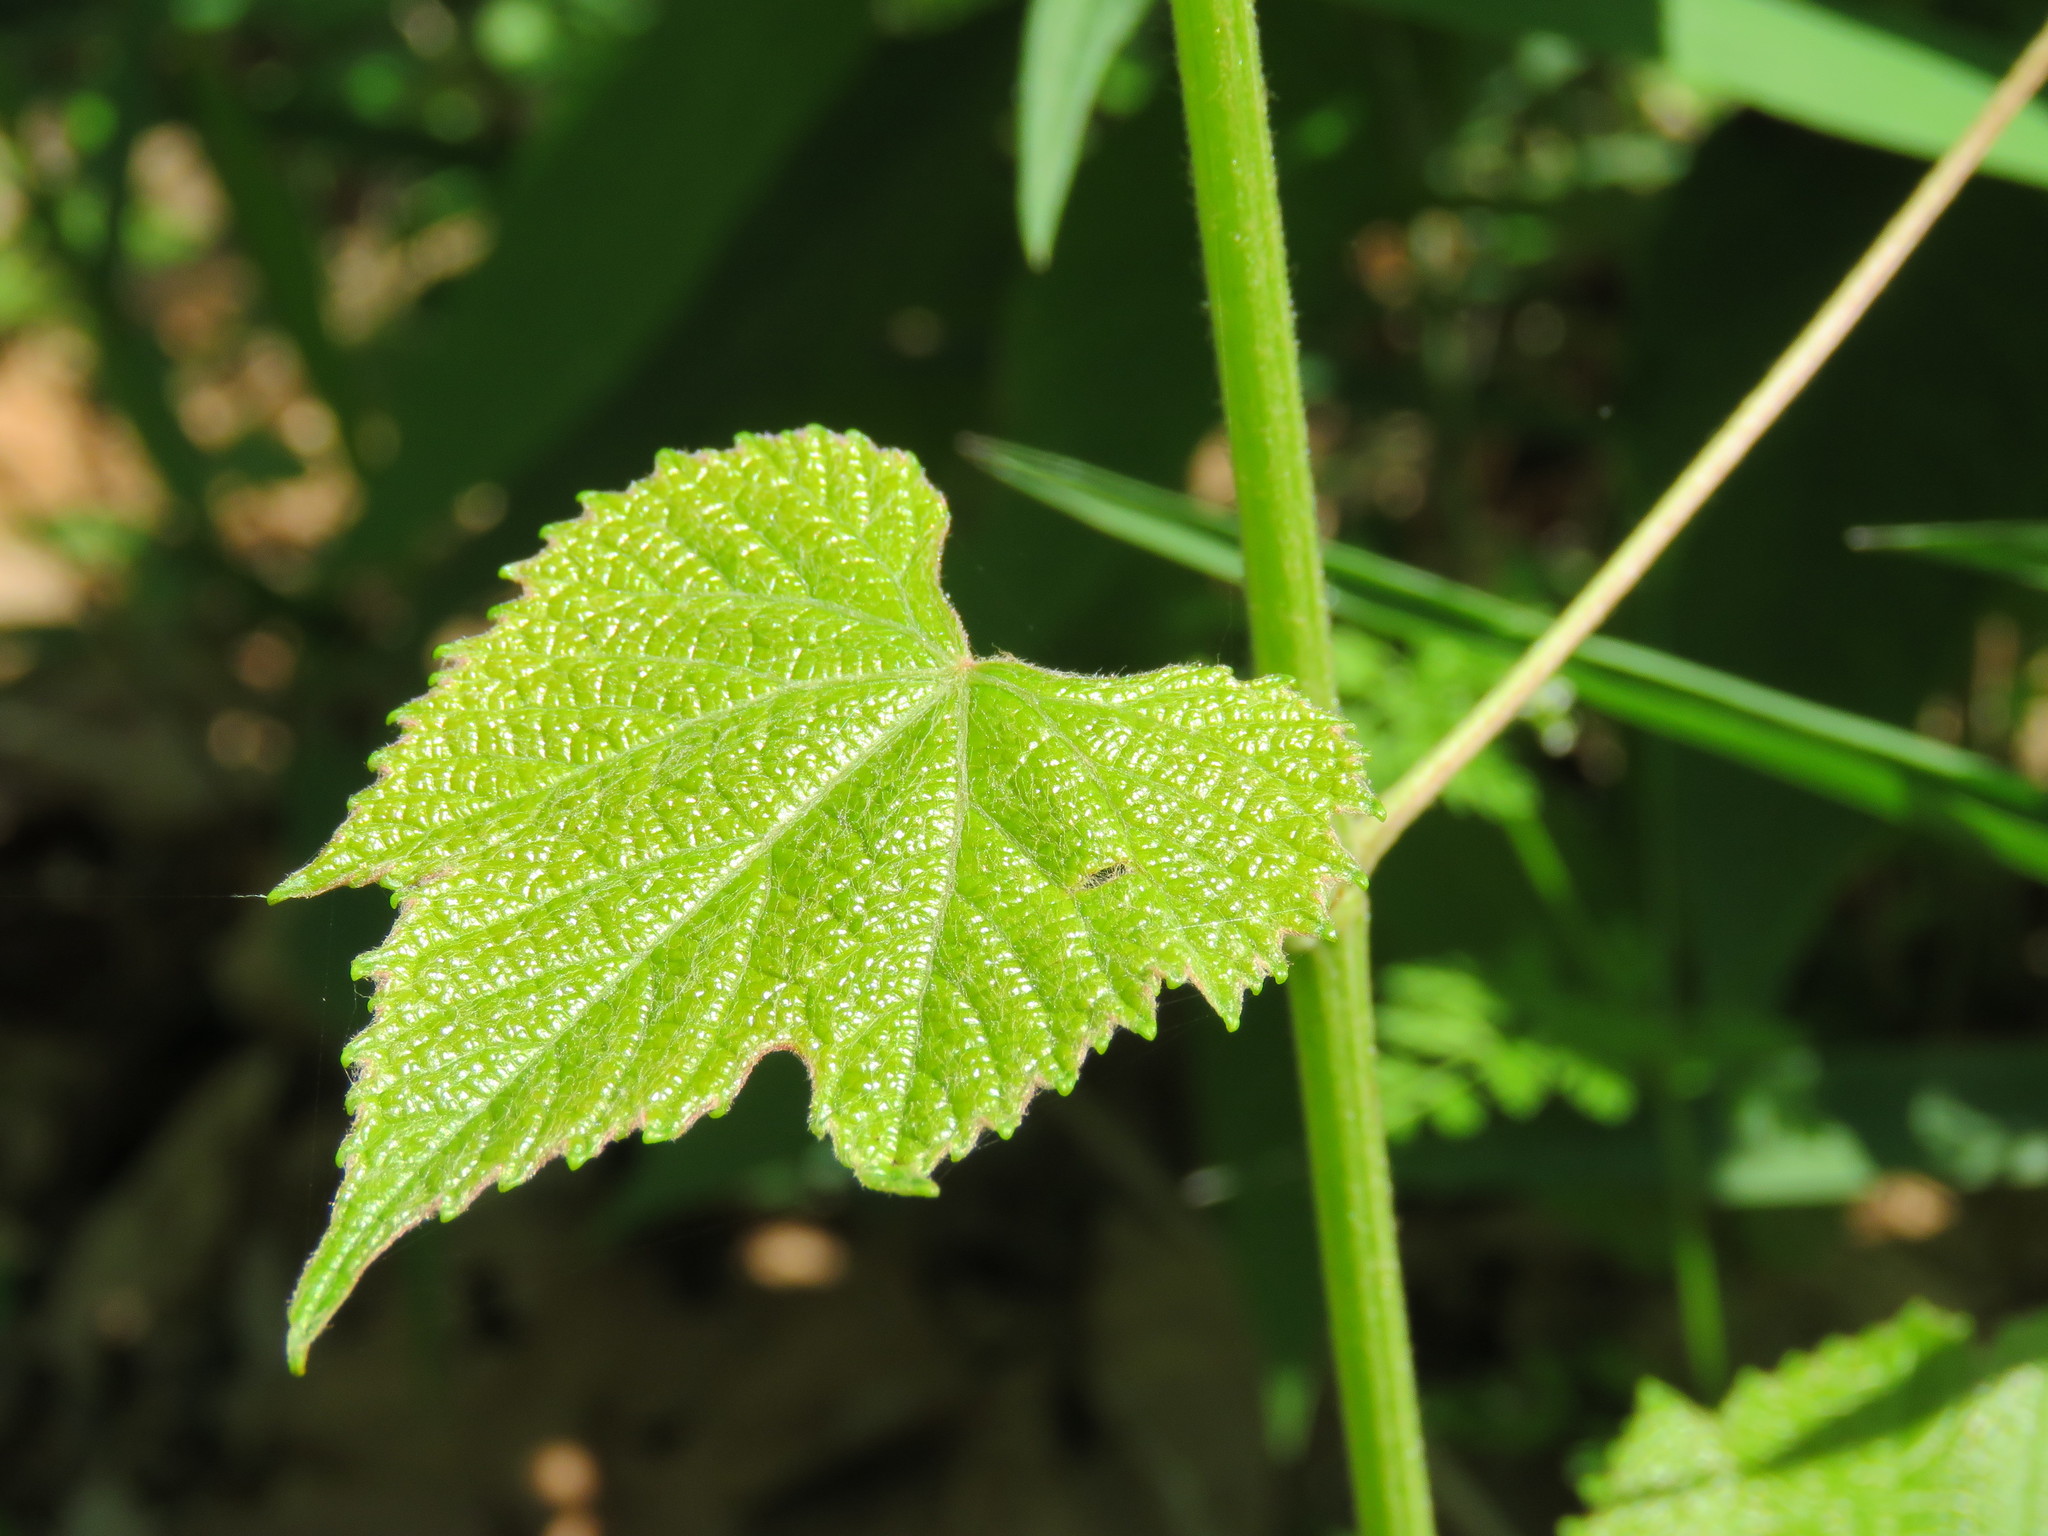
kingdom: Plantae
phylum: Tracheophyta
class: Magnoliopsida
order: Vitales
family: Vitaceae
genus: Vitis
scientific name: Vitis aestivalis
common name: Pigeon grape
